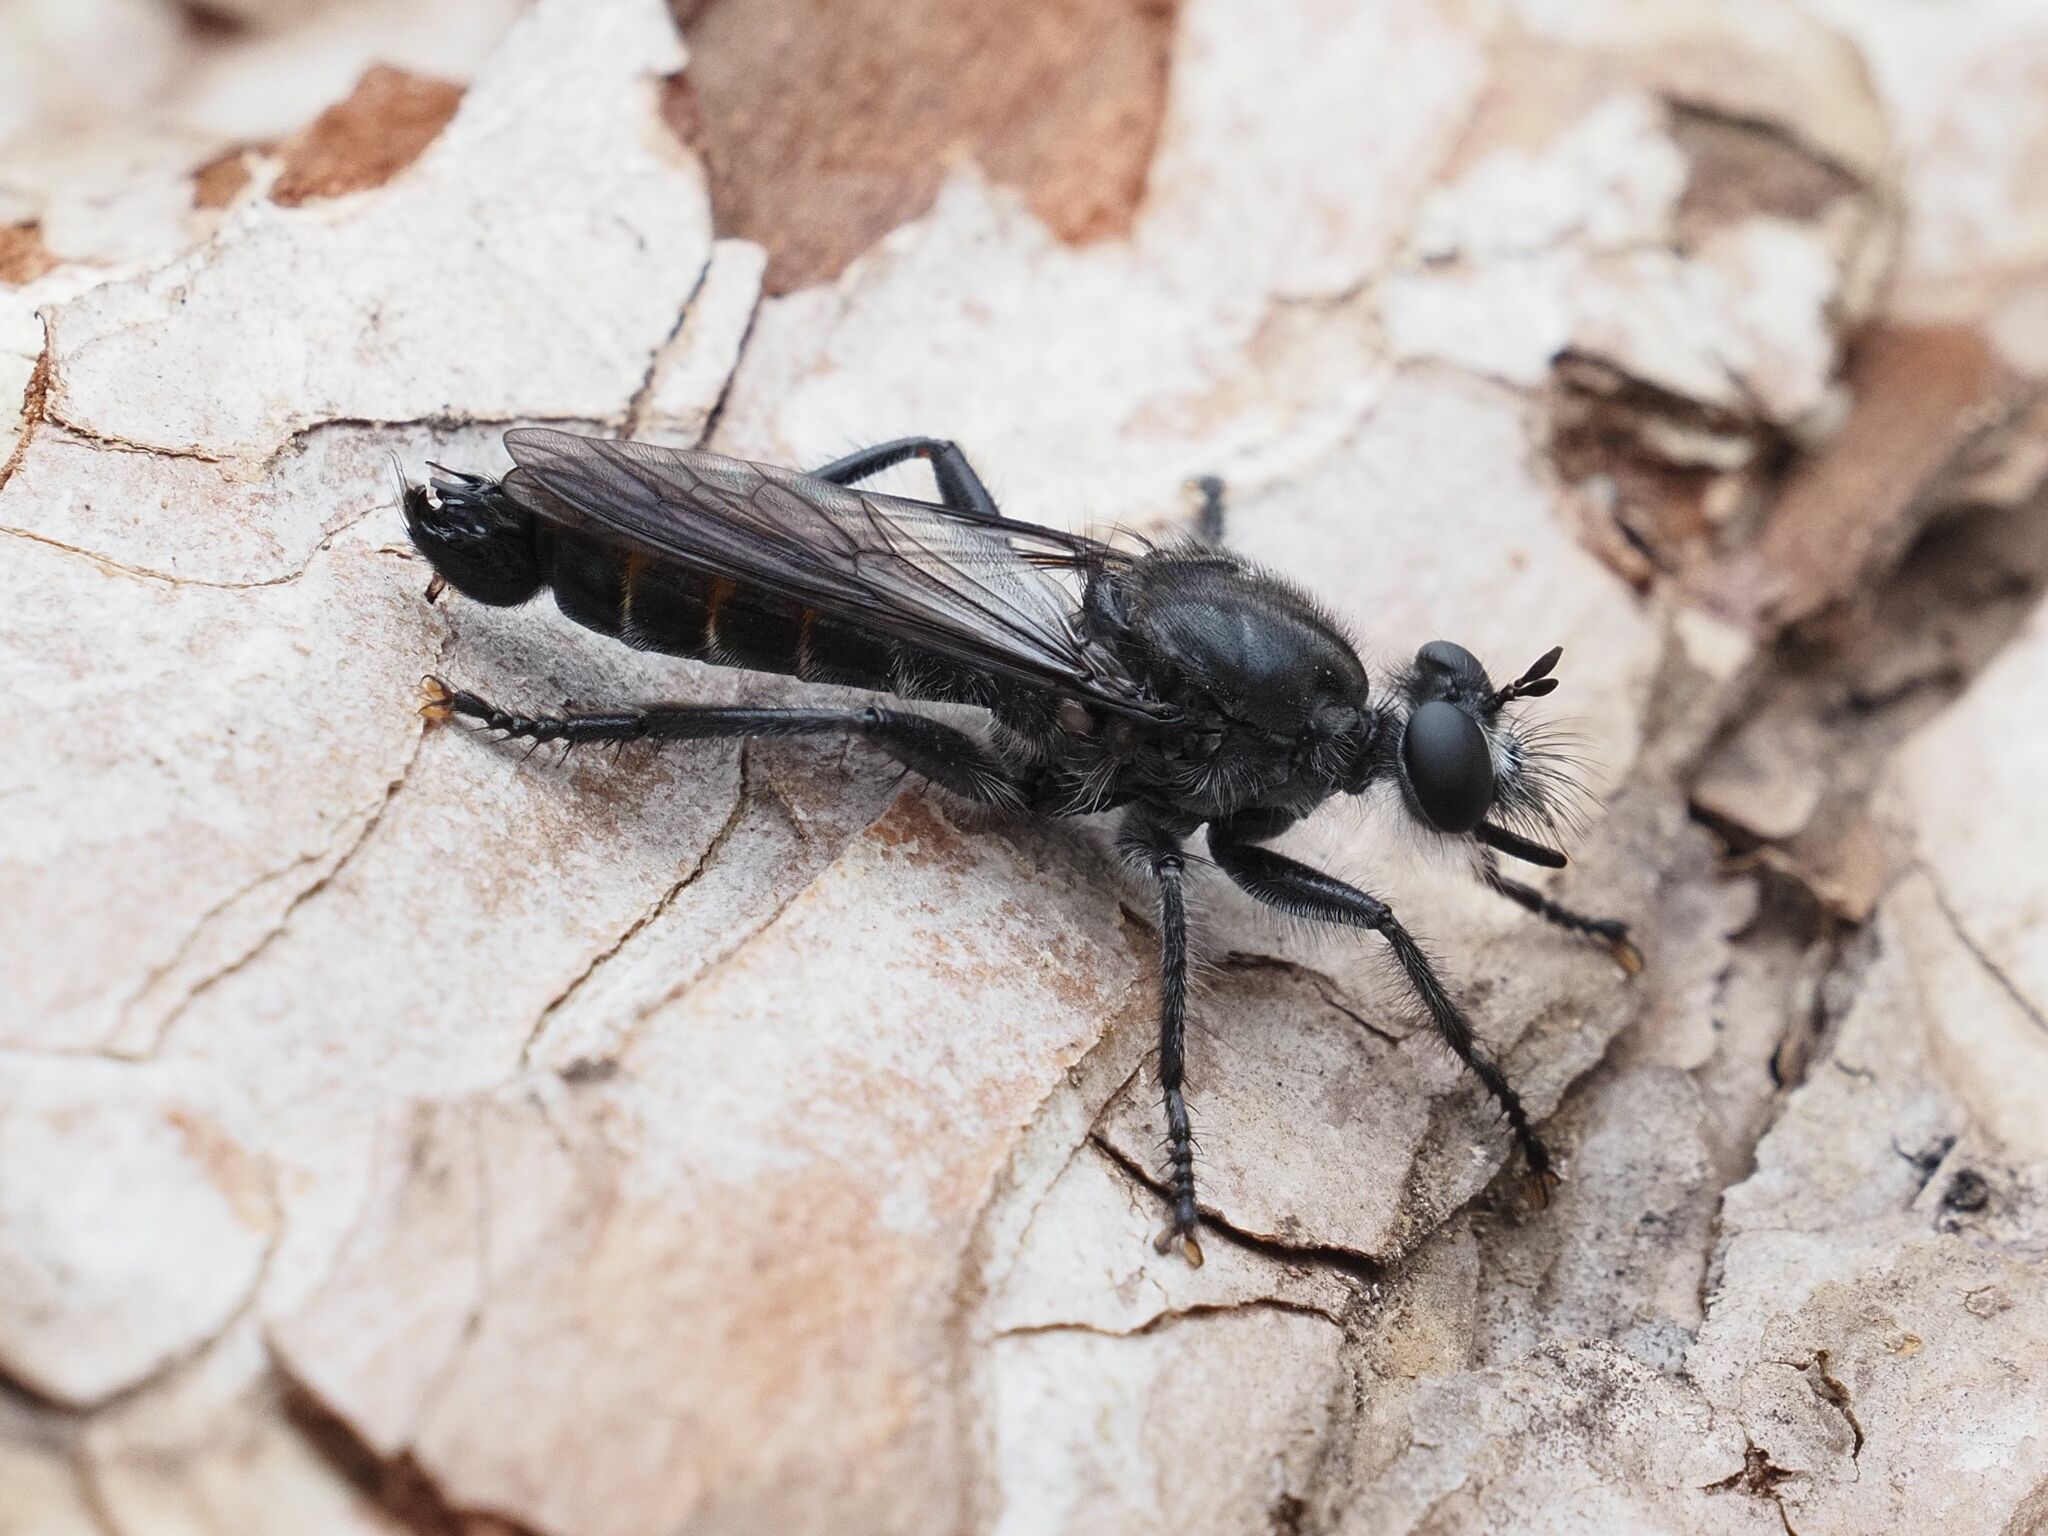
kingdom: Animalia
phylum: Arthropoda
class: Insecta
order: Diptera
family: Asilidae
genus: Laphria
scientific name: Laphria gilva
